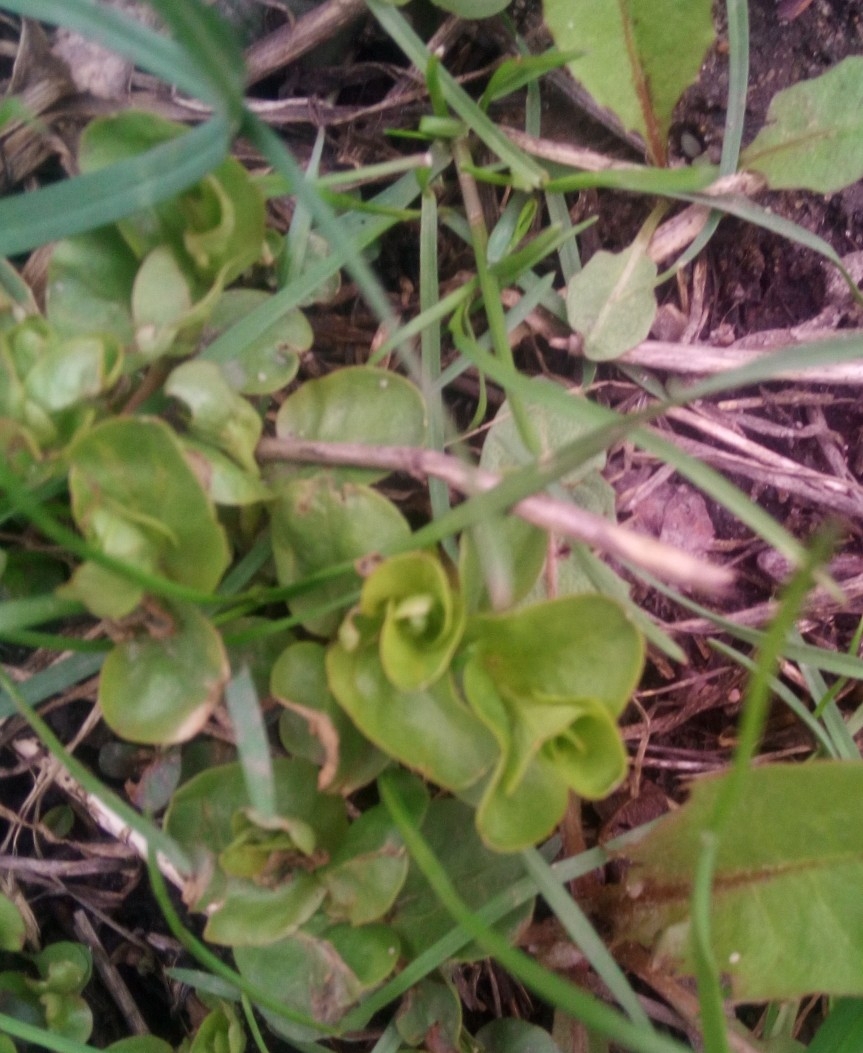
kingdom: Plantae
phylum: Tracheophyta
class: Magnoliopsida
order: Ericales
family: Primulaceae
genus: Lysimachia
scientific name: Lysimachia nummularia
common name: Moneywort
